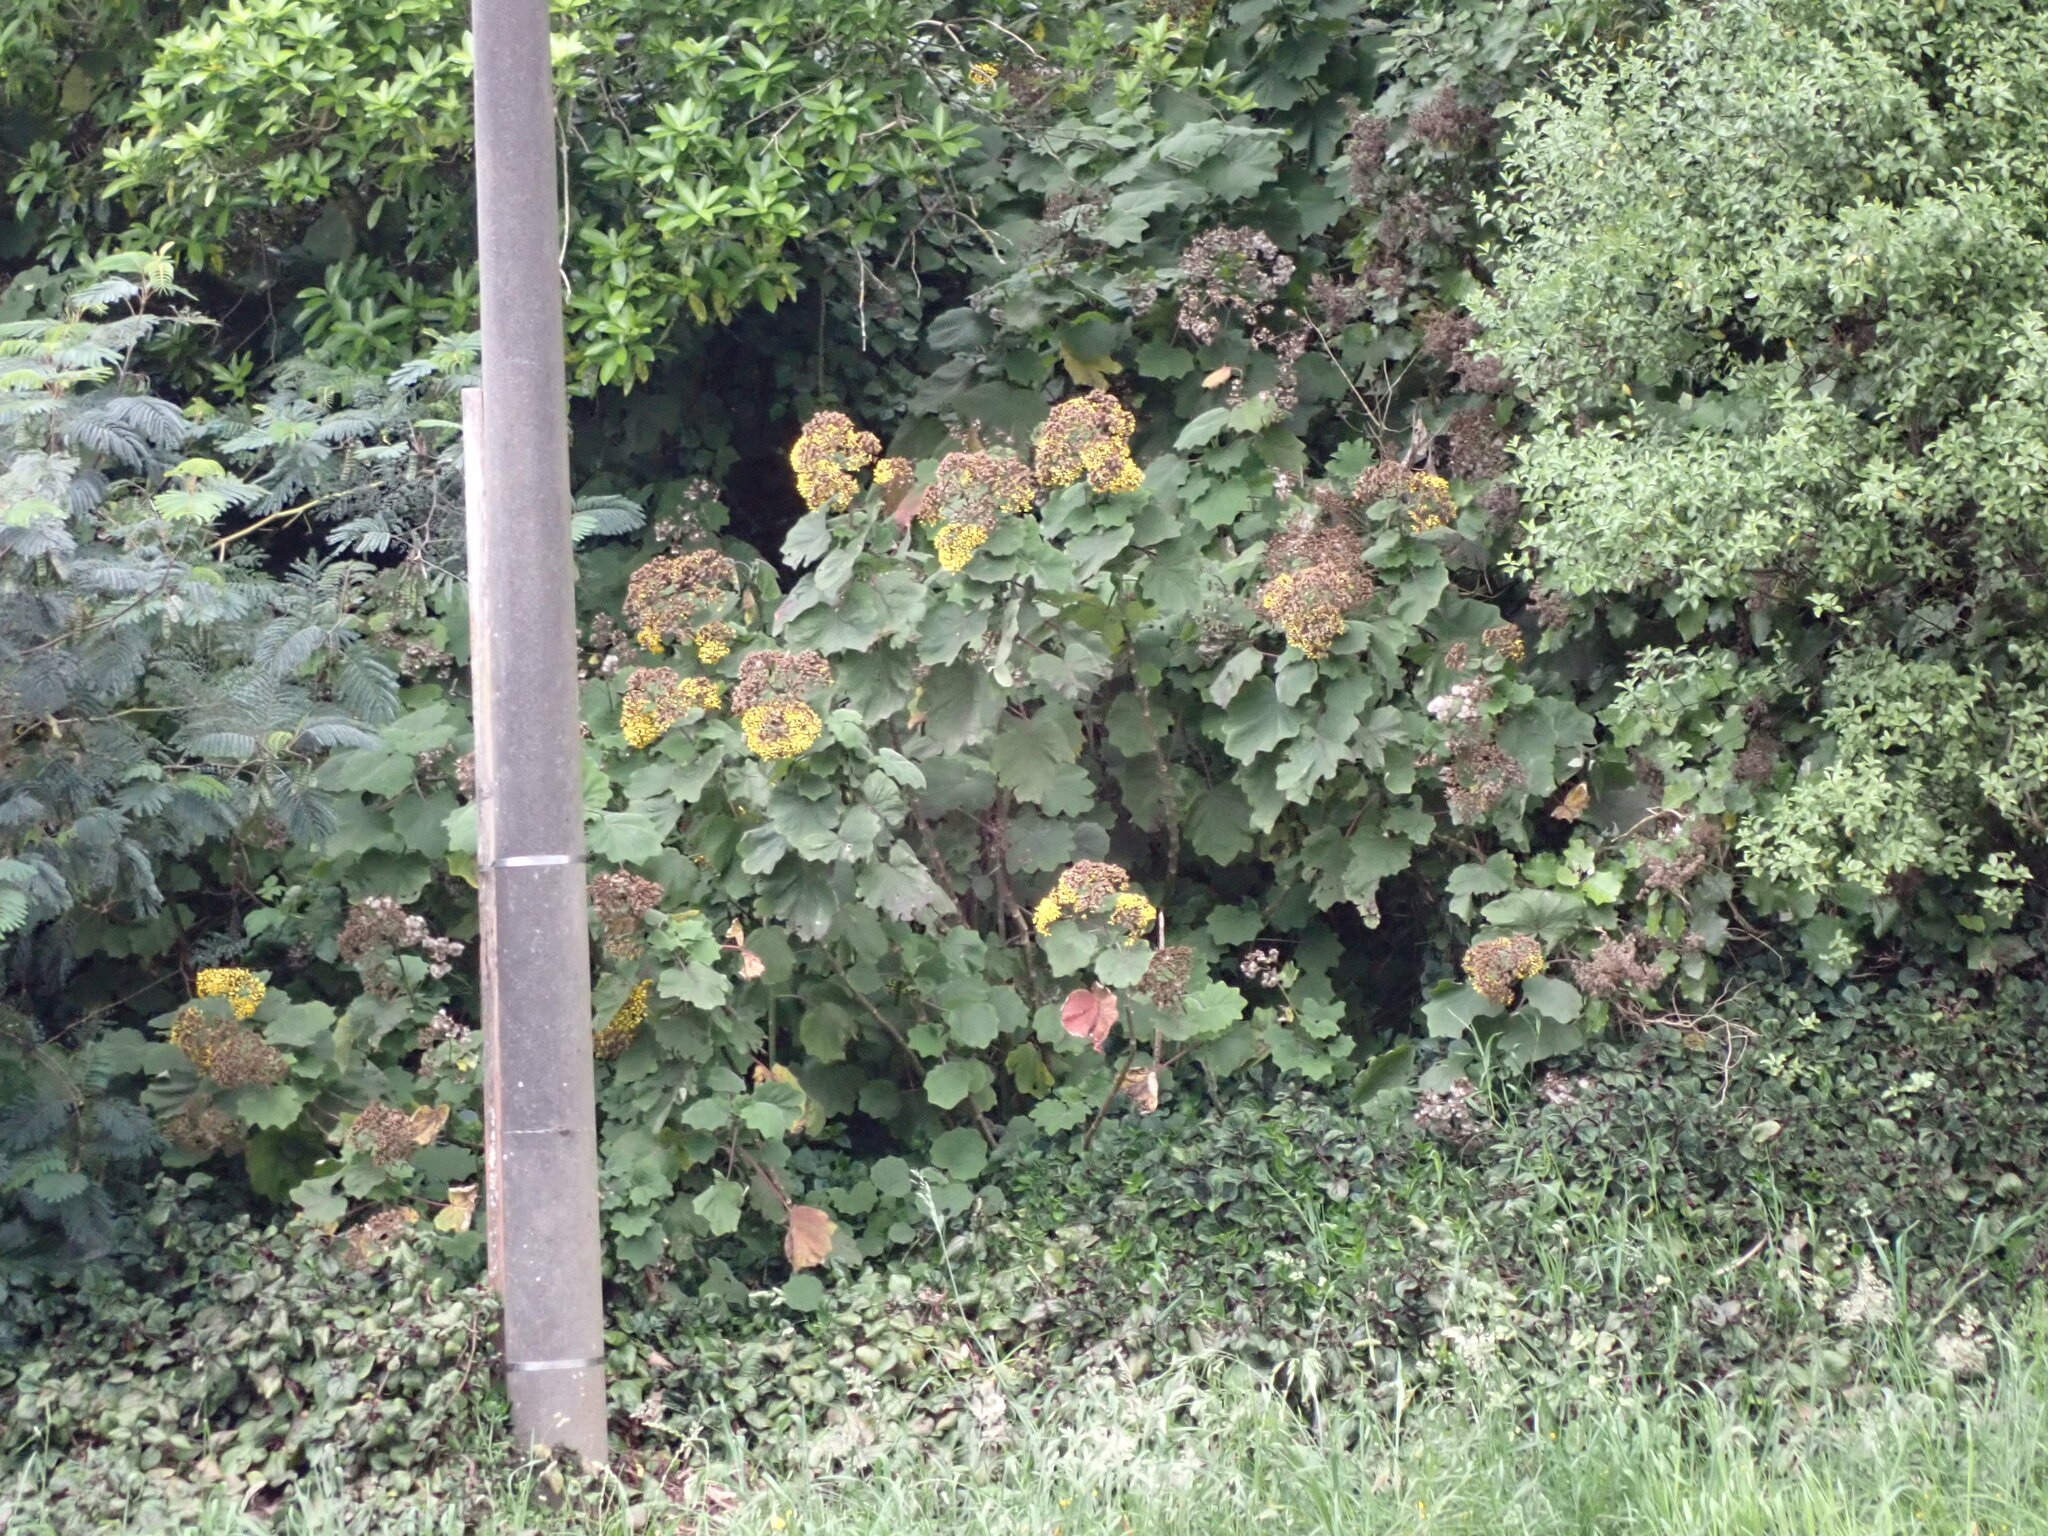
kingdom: Plantae
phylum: Tracheophyta
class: Magnoliopsida
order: Asterales
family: Asteraceae
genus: Roldana
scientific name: Roldana petasitis
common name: California-geranium
